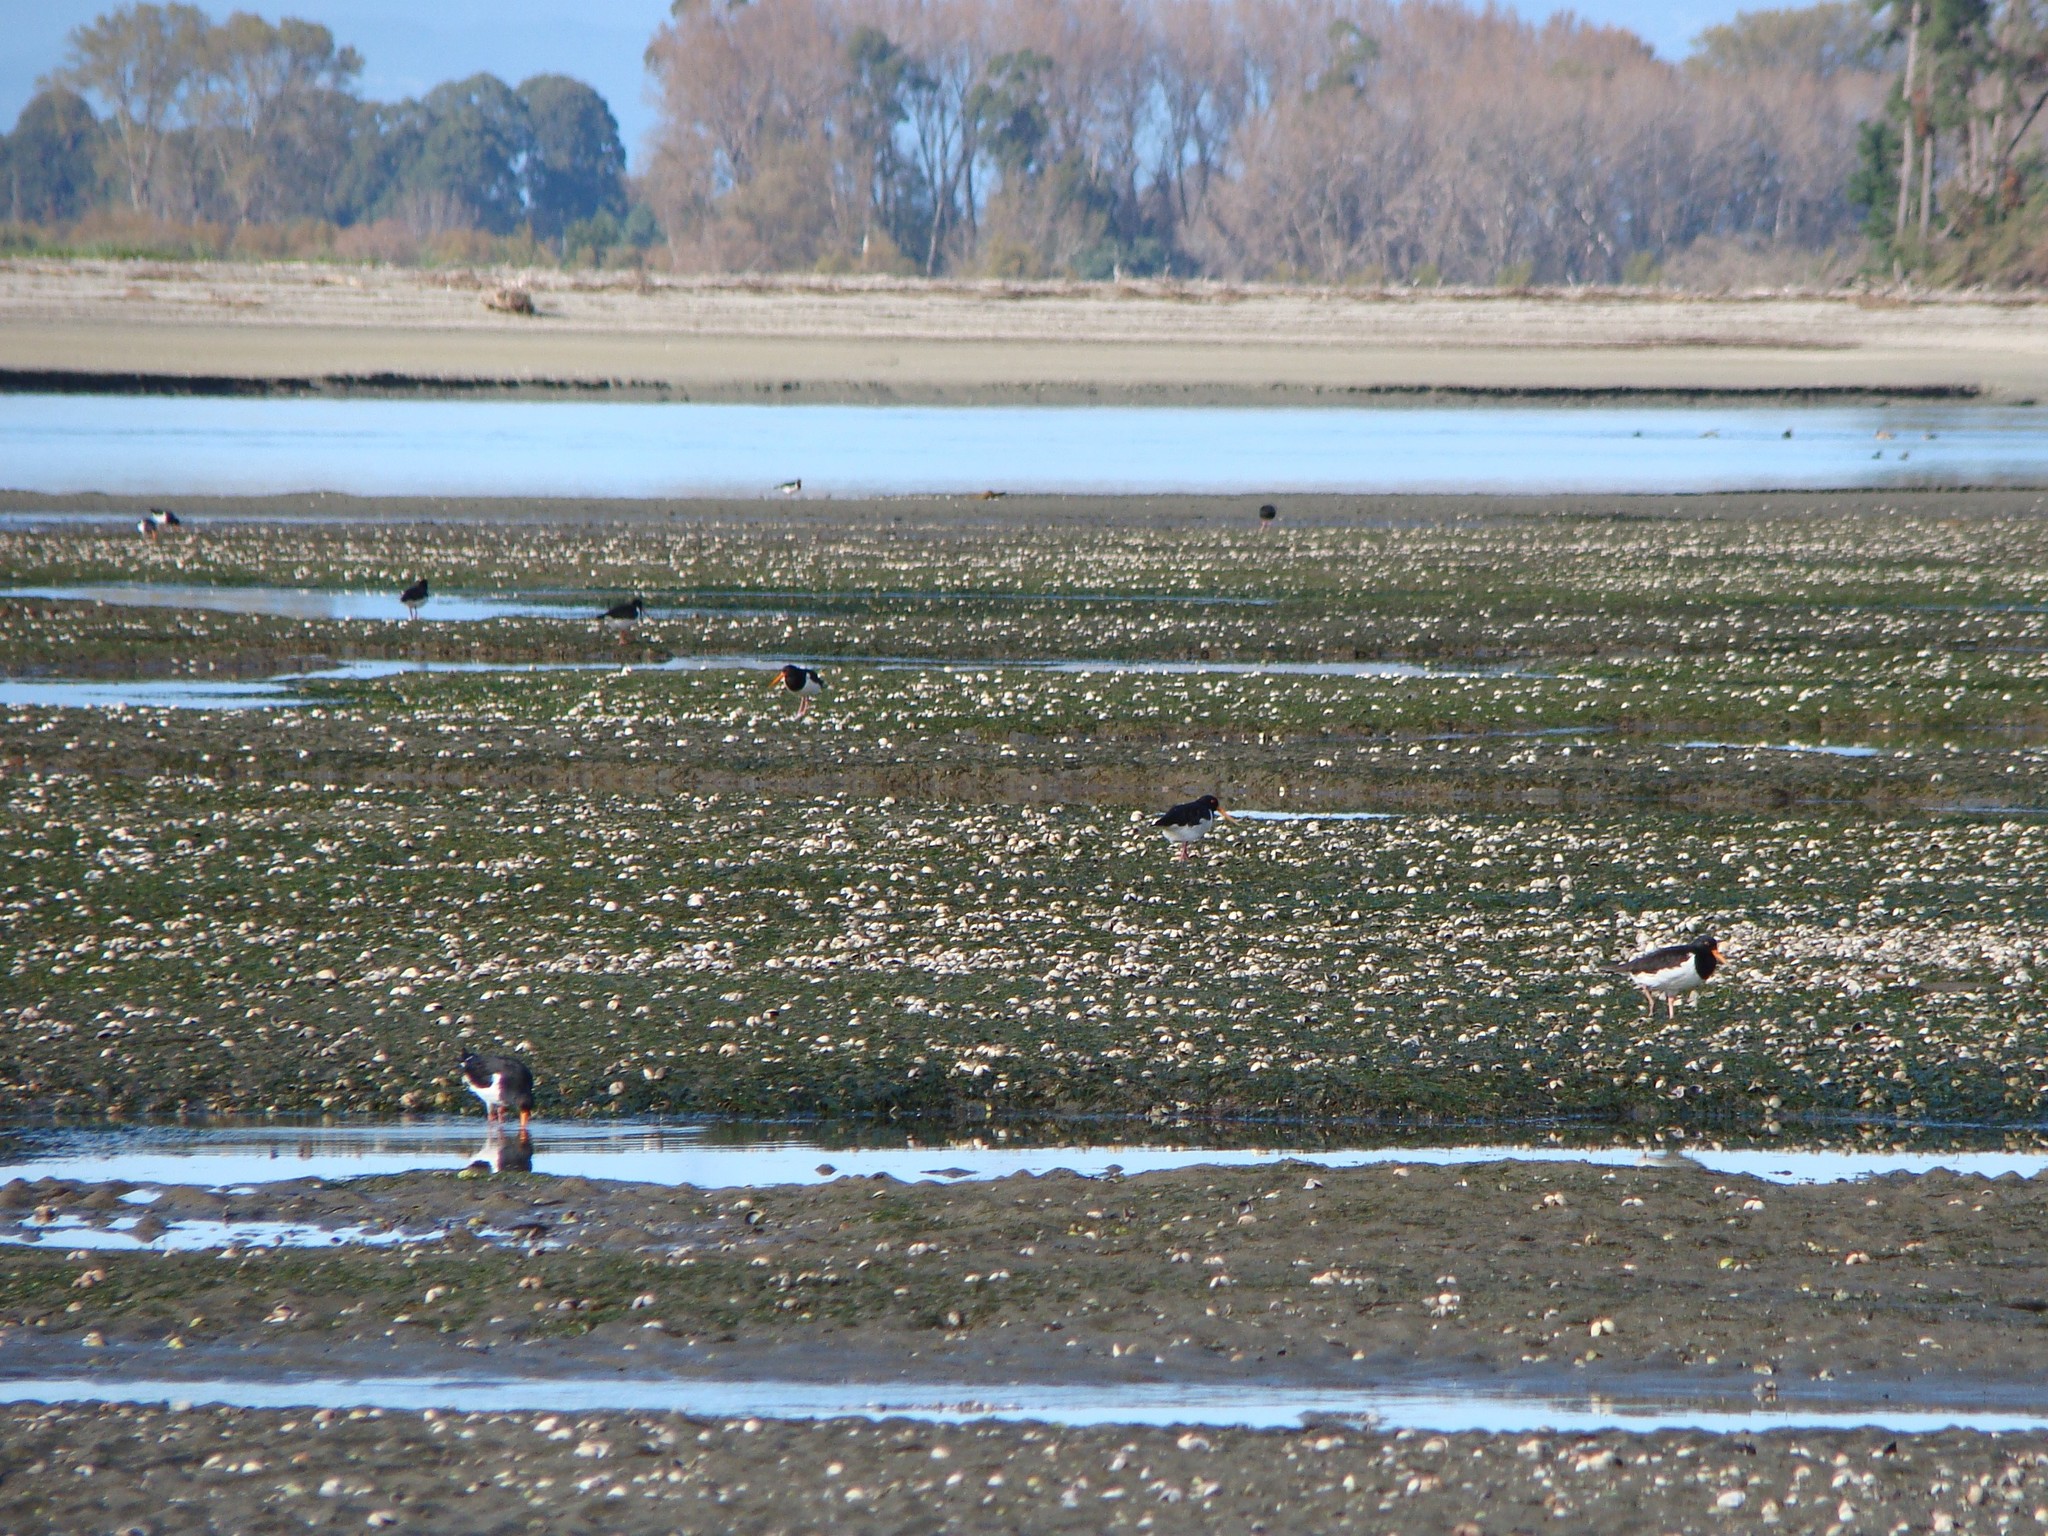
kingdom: Animalia
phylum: Chordata
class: Aves
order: Charadriiformes
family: Haematopodidae
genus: Haematopus
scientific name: Haematopus finschi
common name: South island oystercatcher
